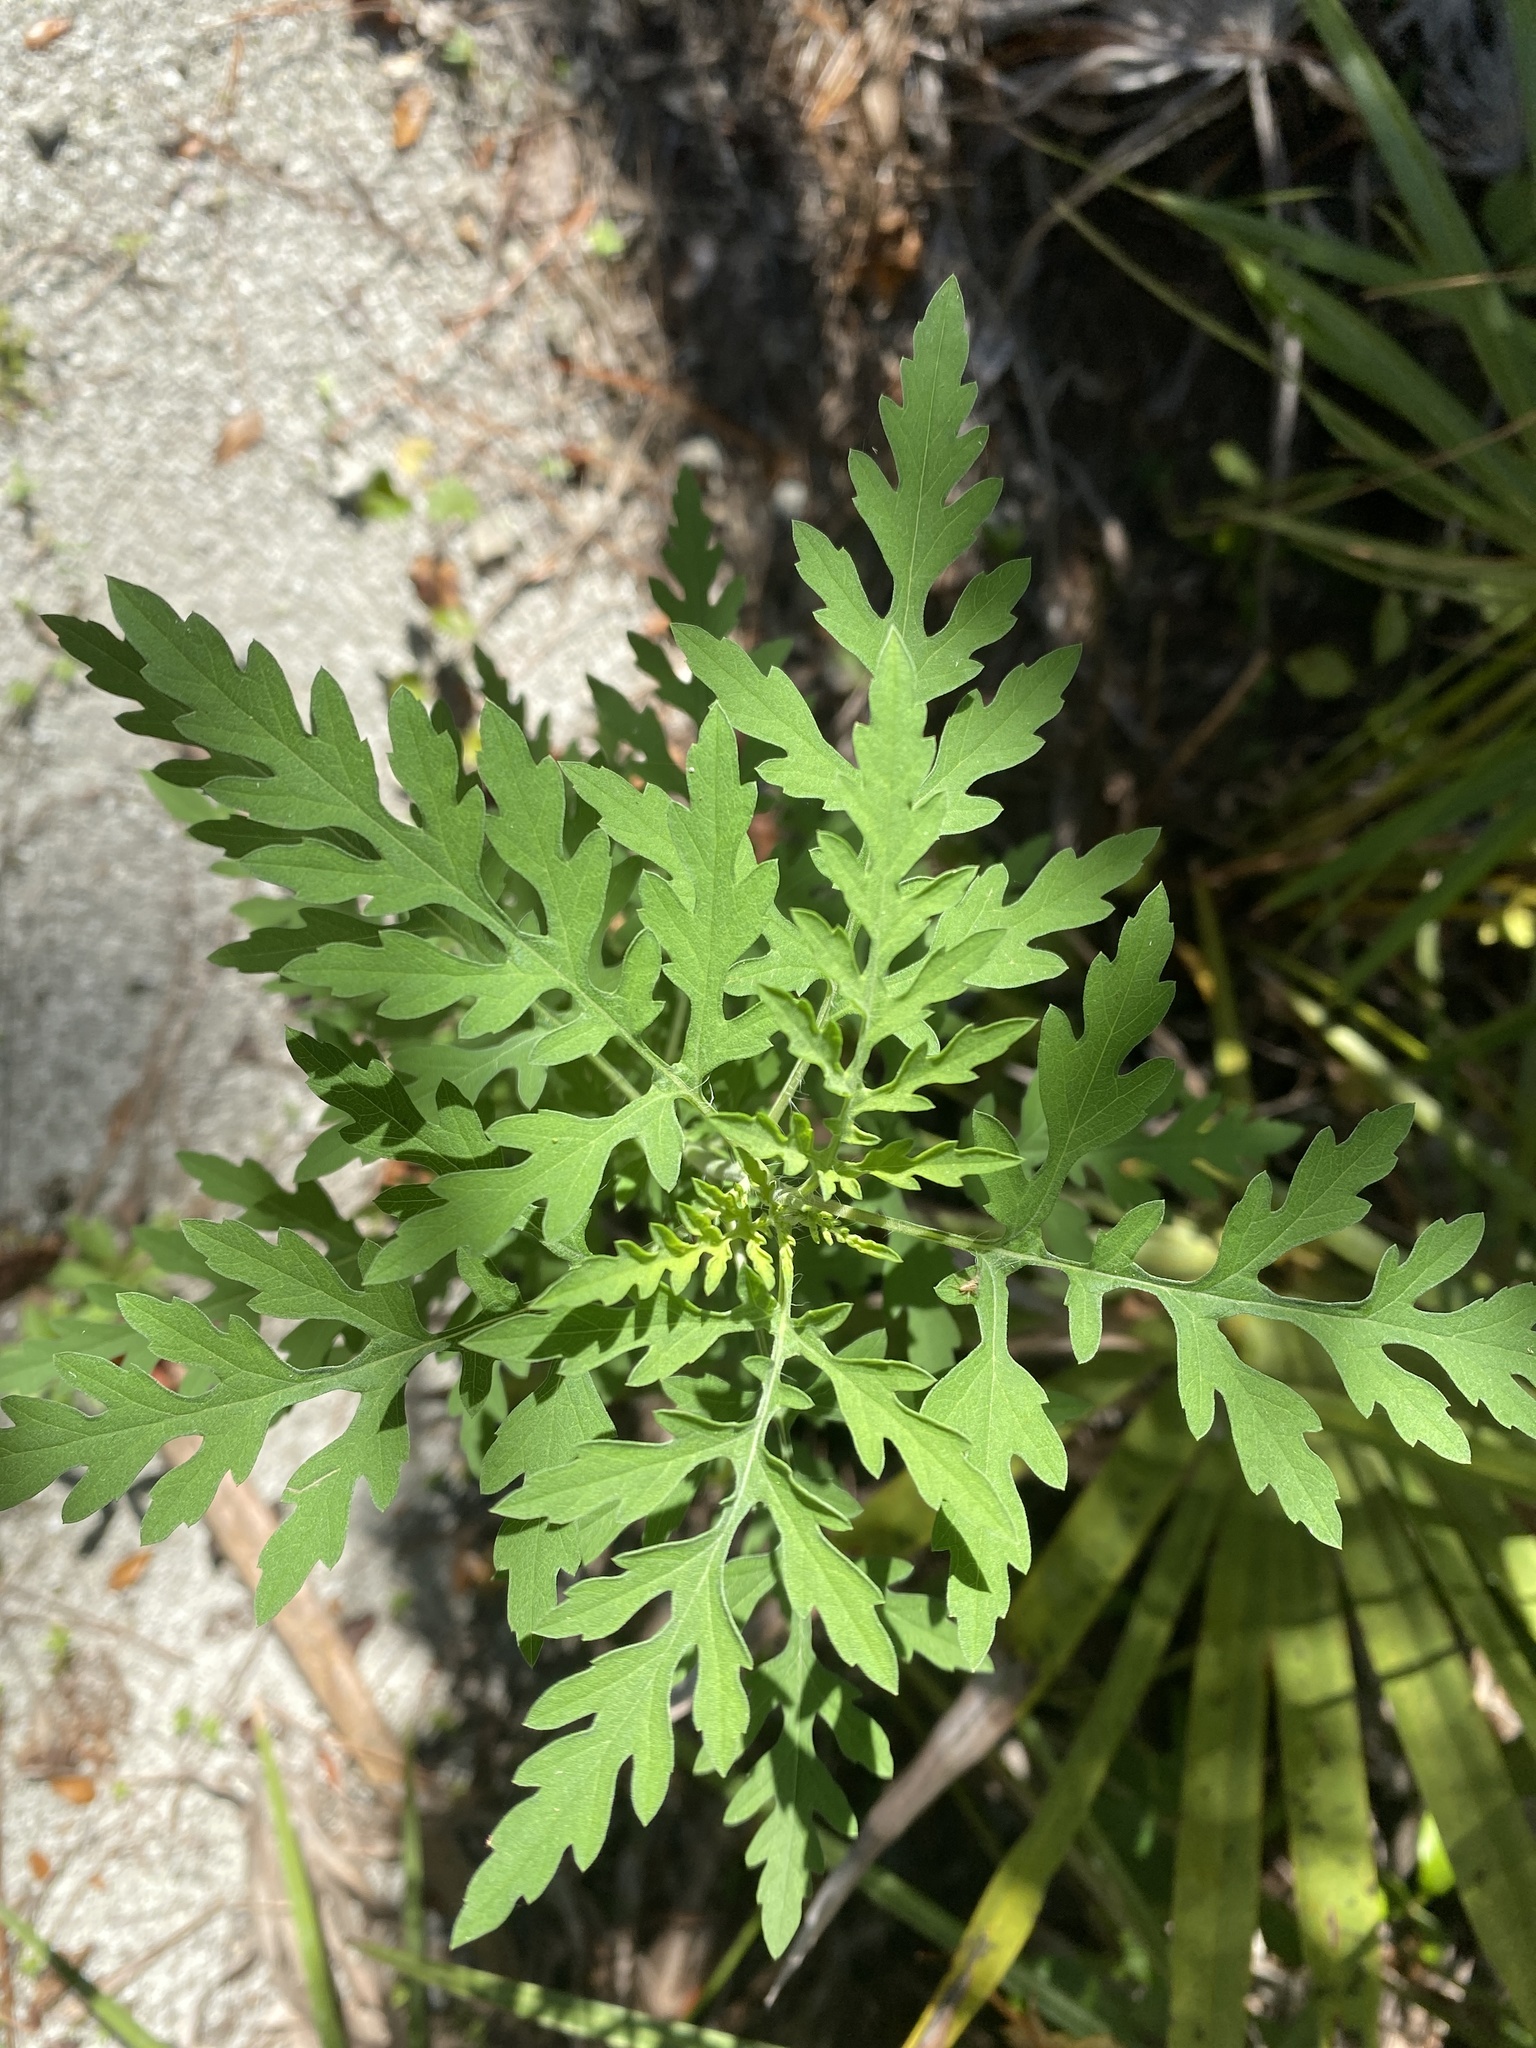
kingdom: Plantae
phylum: Tracheophyta
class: Magnoliopsida
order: Asterales
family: Asteraceae
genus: Ambrosia
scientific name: Ambrosia artemisiifolia
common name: Annual ragweed
